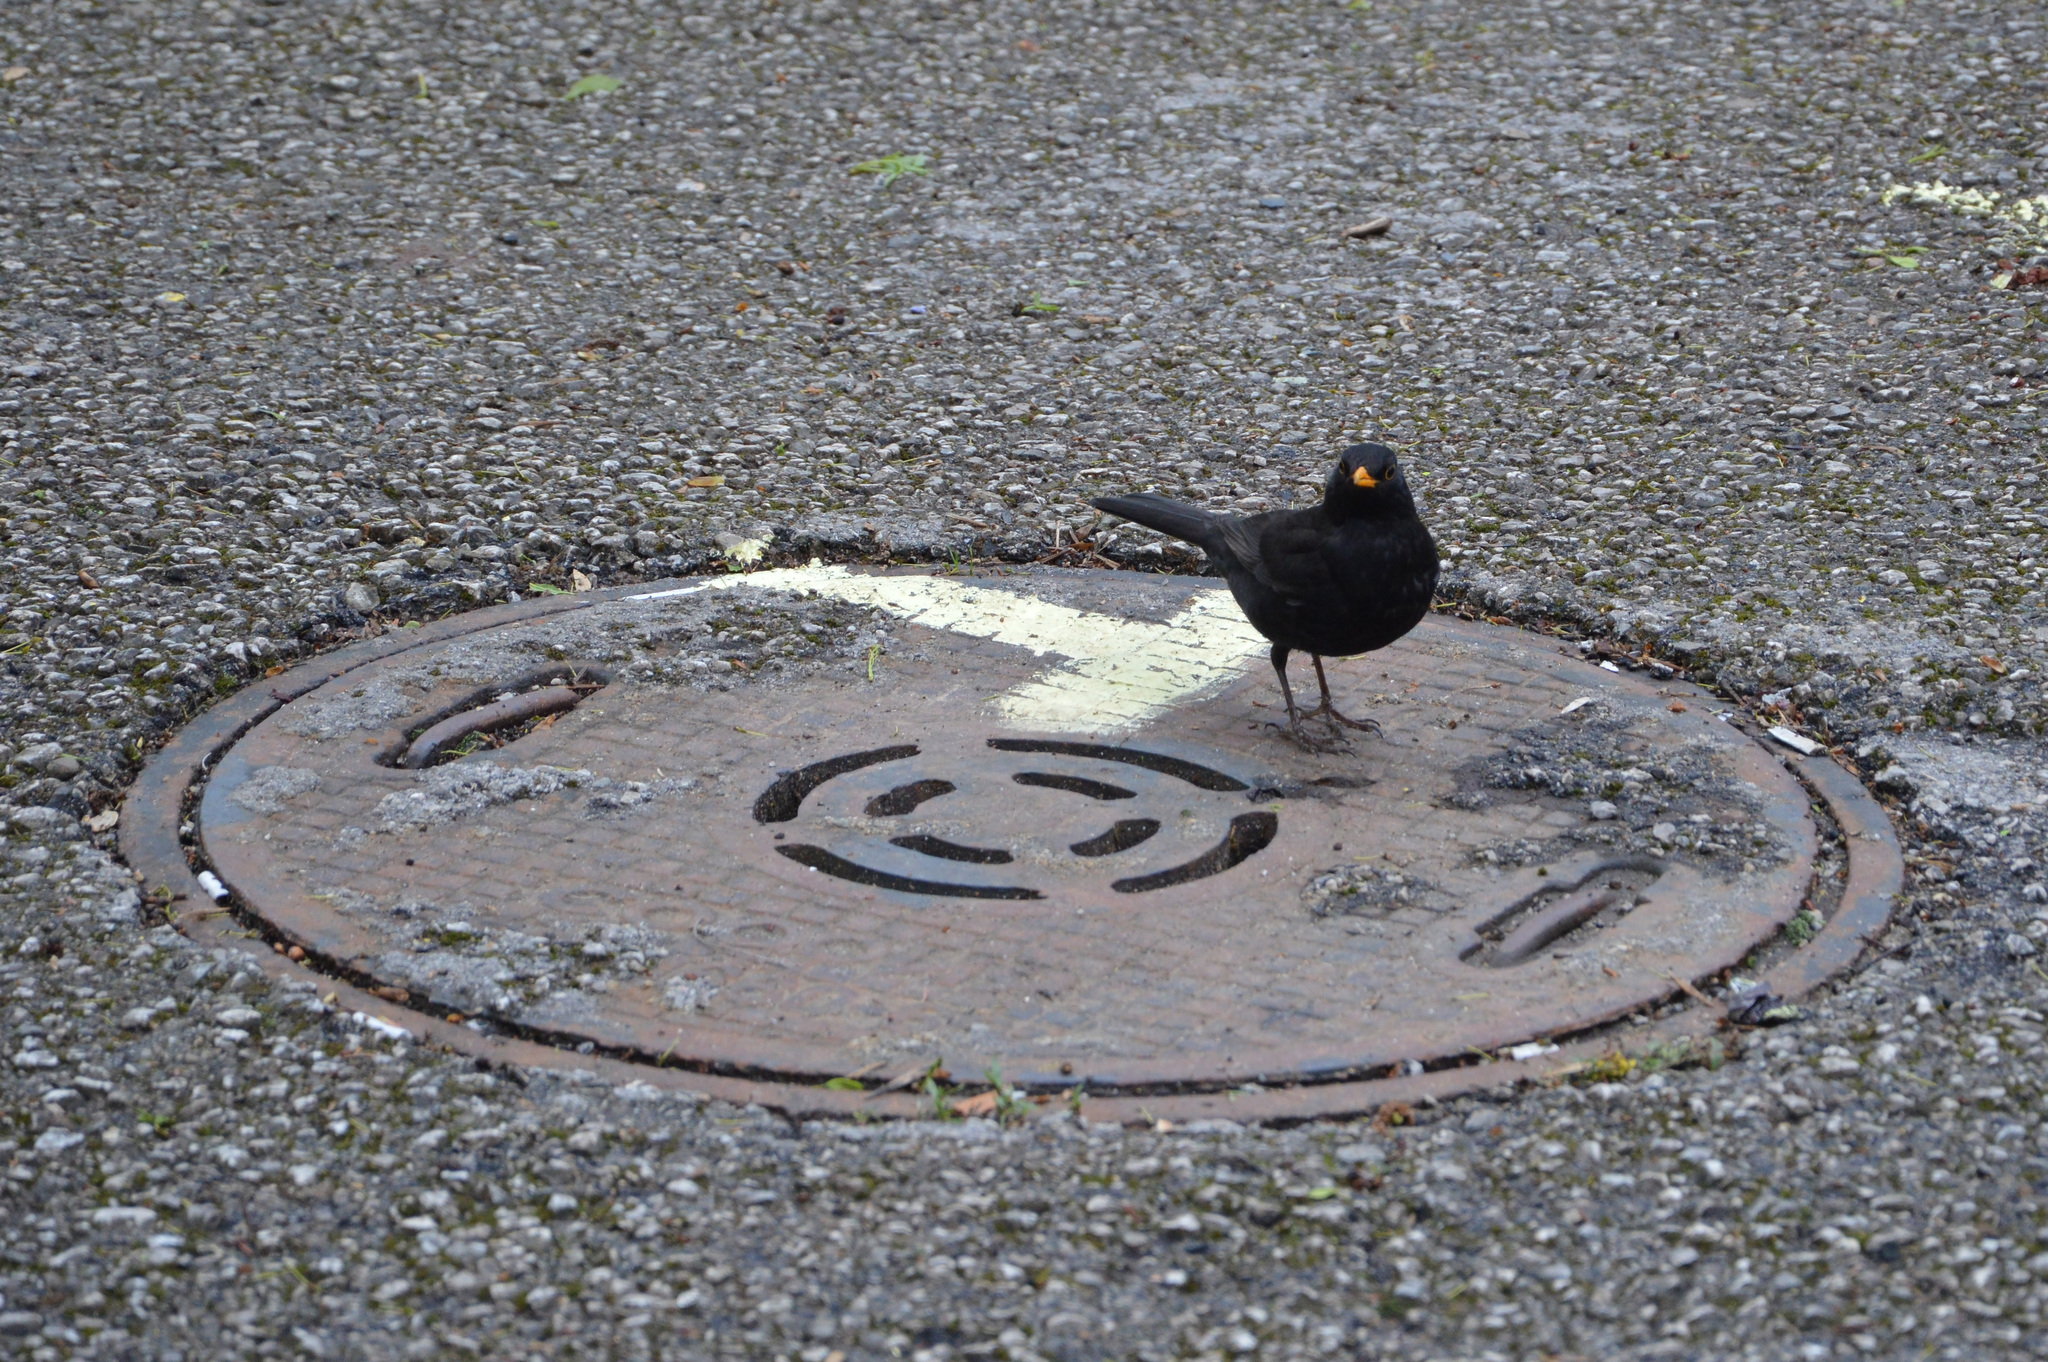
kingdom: Animalia
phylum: Chordata
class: Aves
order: Passeriformes
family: Turdidae
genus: Turdus
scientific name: Turdus merula
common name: Common blackbird
